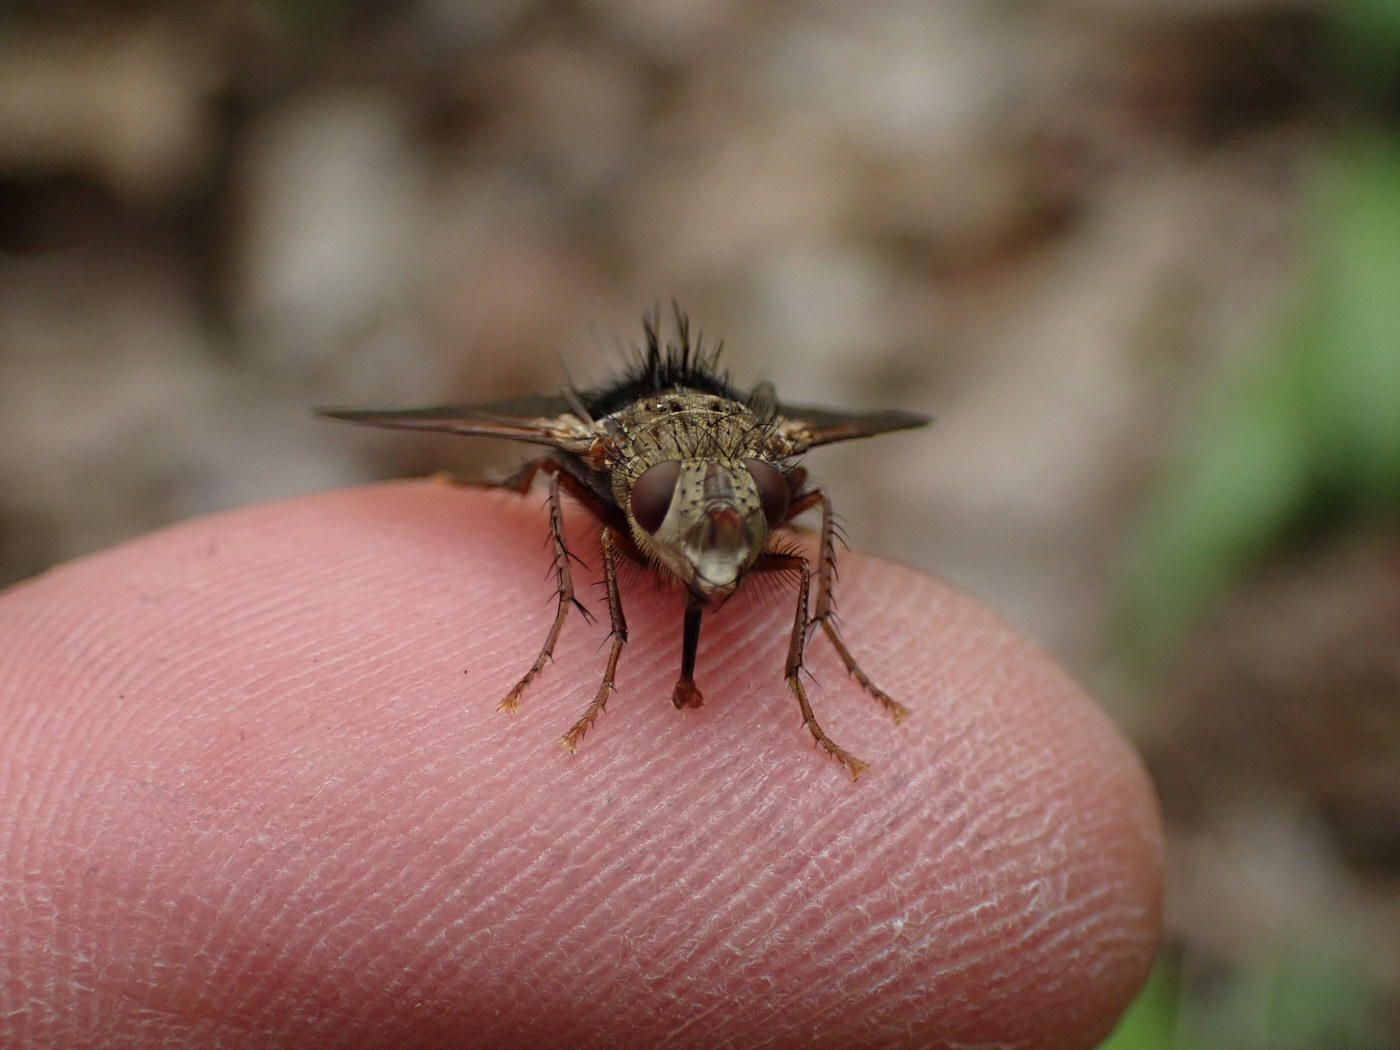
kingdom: Animalia
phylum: Arthropoda
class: Insecta
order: Diptera
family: Tachinidae
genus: Epalpus
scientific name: Epalpus signifer
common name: Early tachinid fly
